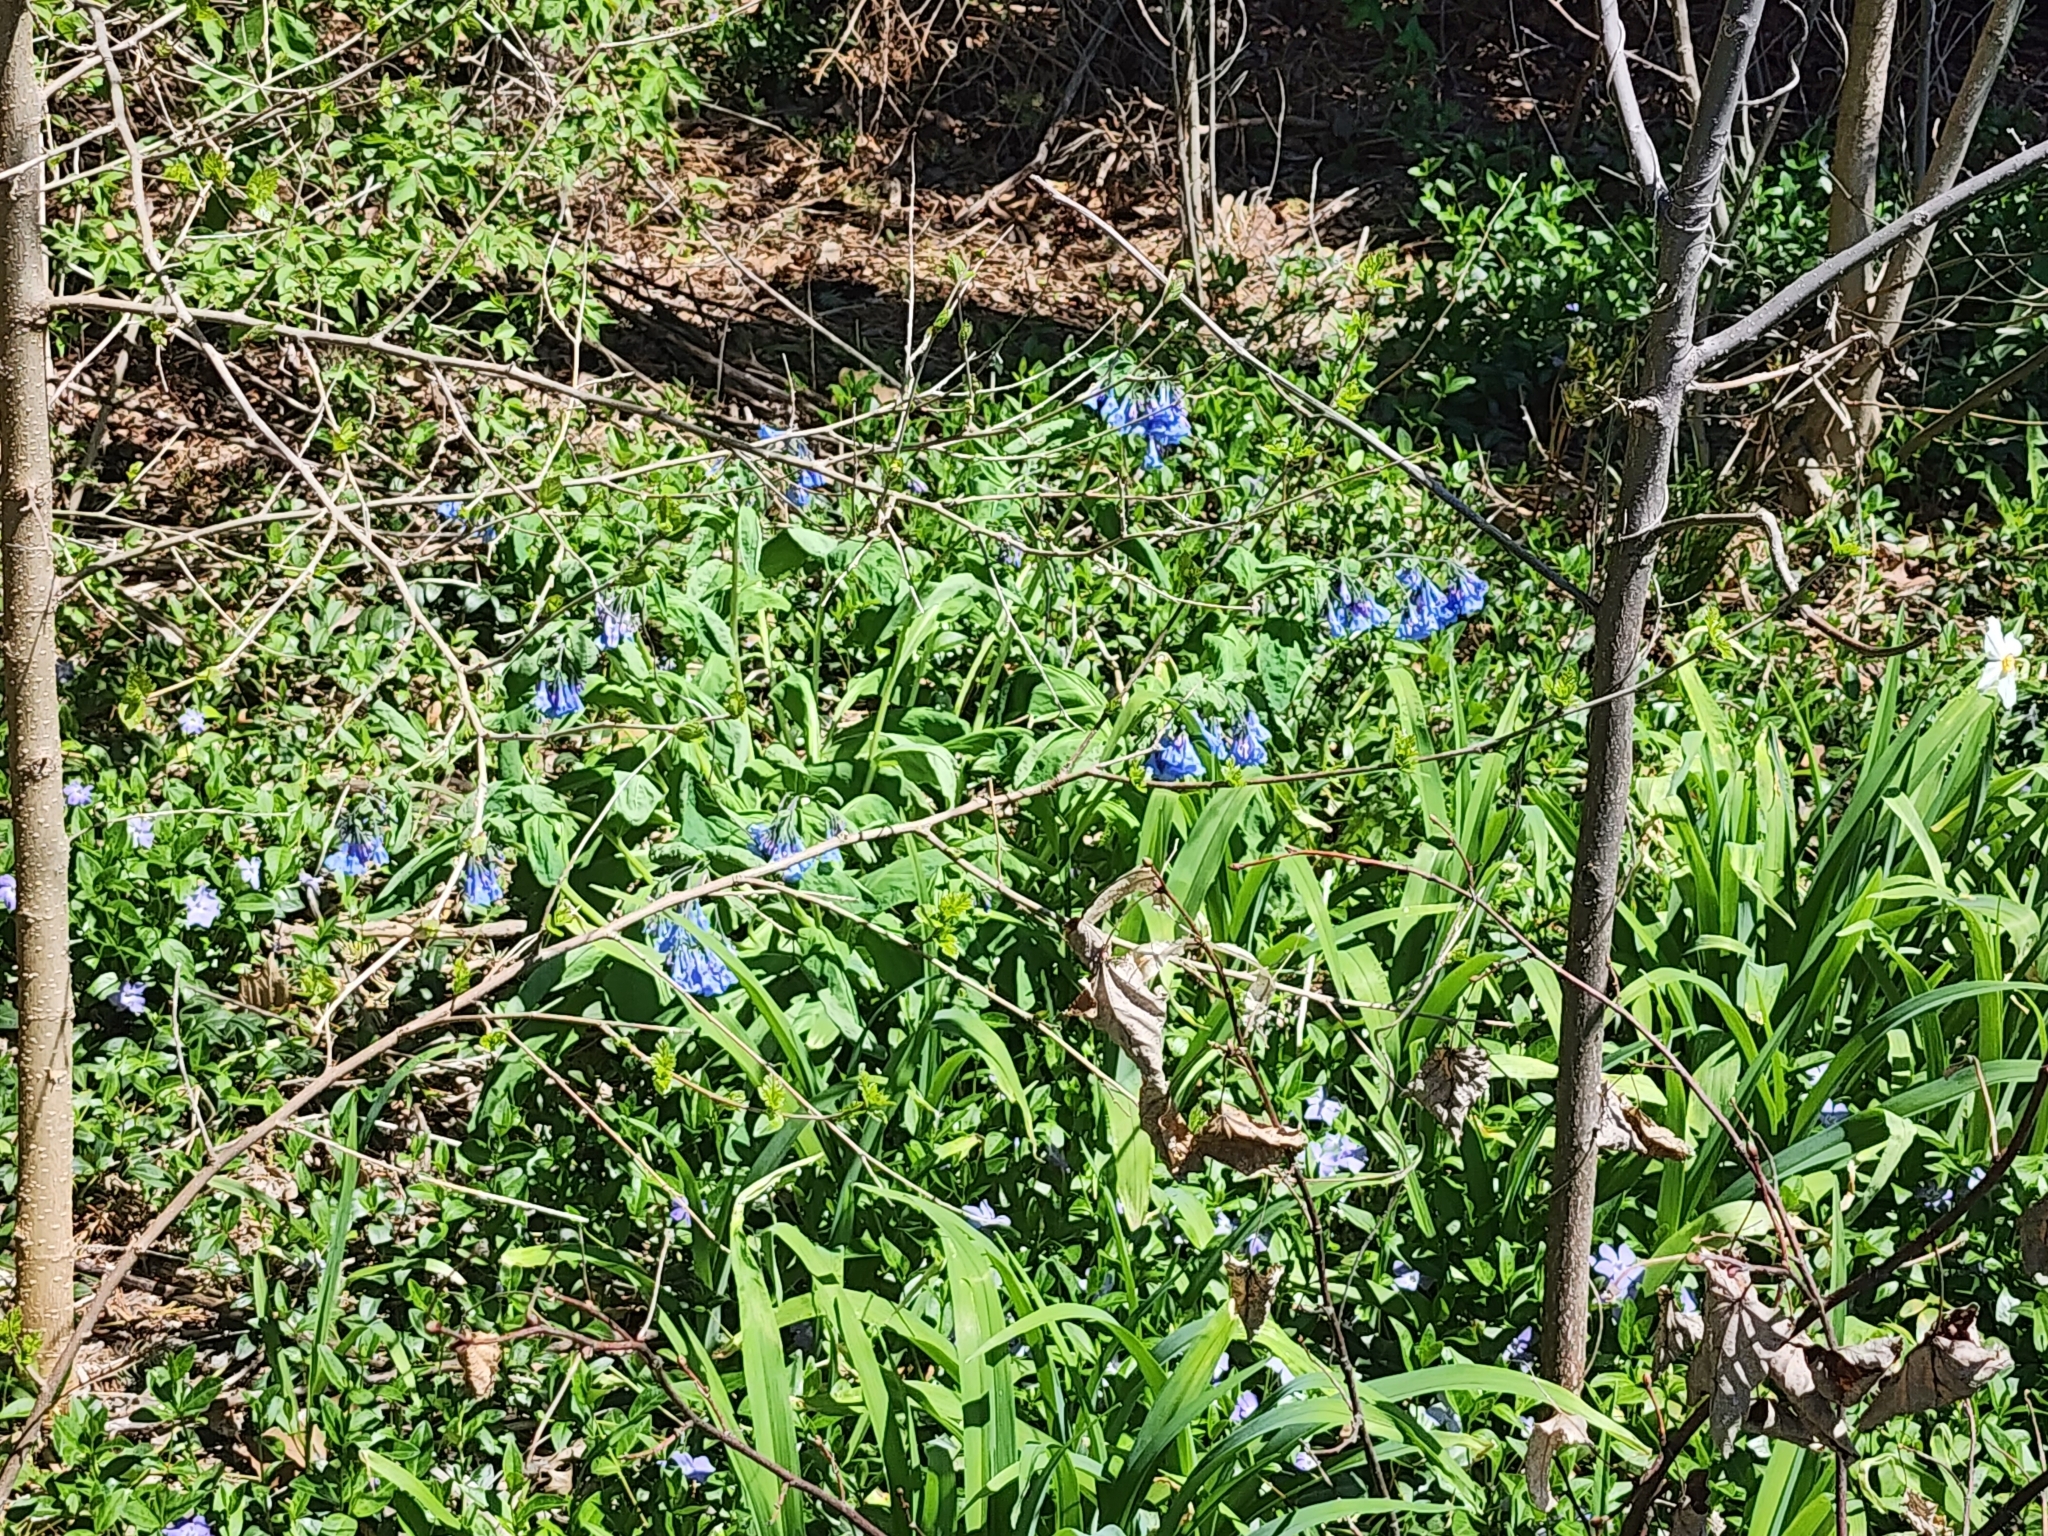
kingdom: Plantae
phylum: Tracheophyta
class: Magnoliopsida
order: Boraginales
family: Boraginaceae
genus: Mertensia
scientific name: Mertensia virginica
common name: Virginia bluebells
